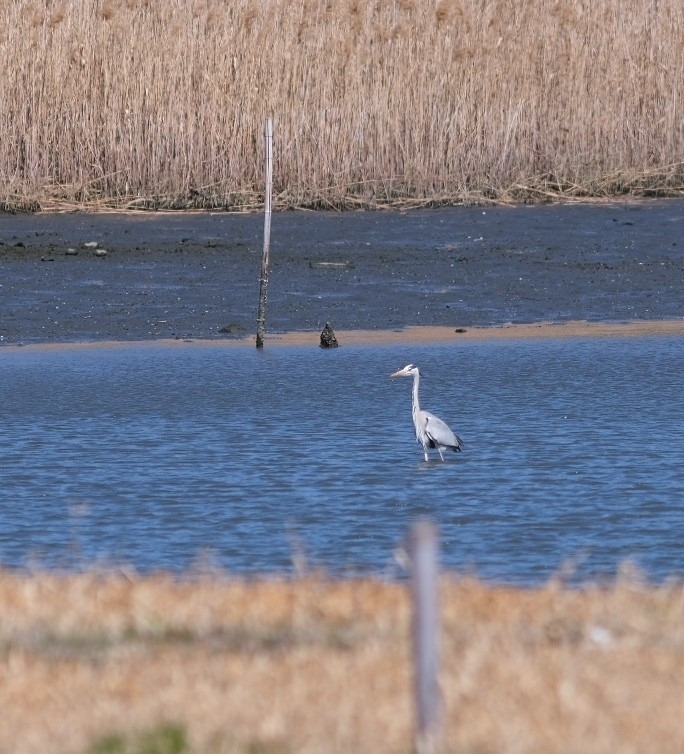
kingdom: Animalia
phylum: Chordata
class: Aves
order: Pelecaniformes
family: Ardeidae
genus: Ardea
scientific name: Ardea cinerea
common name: Grey heron
